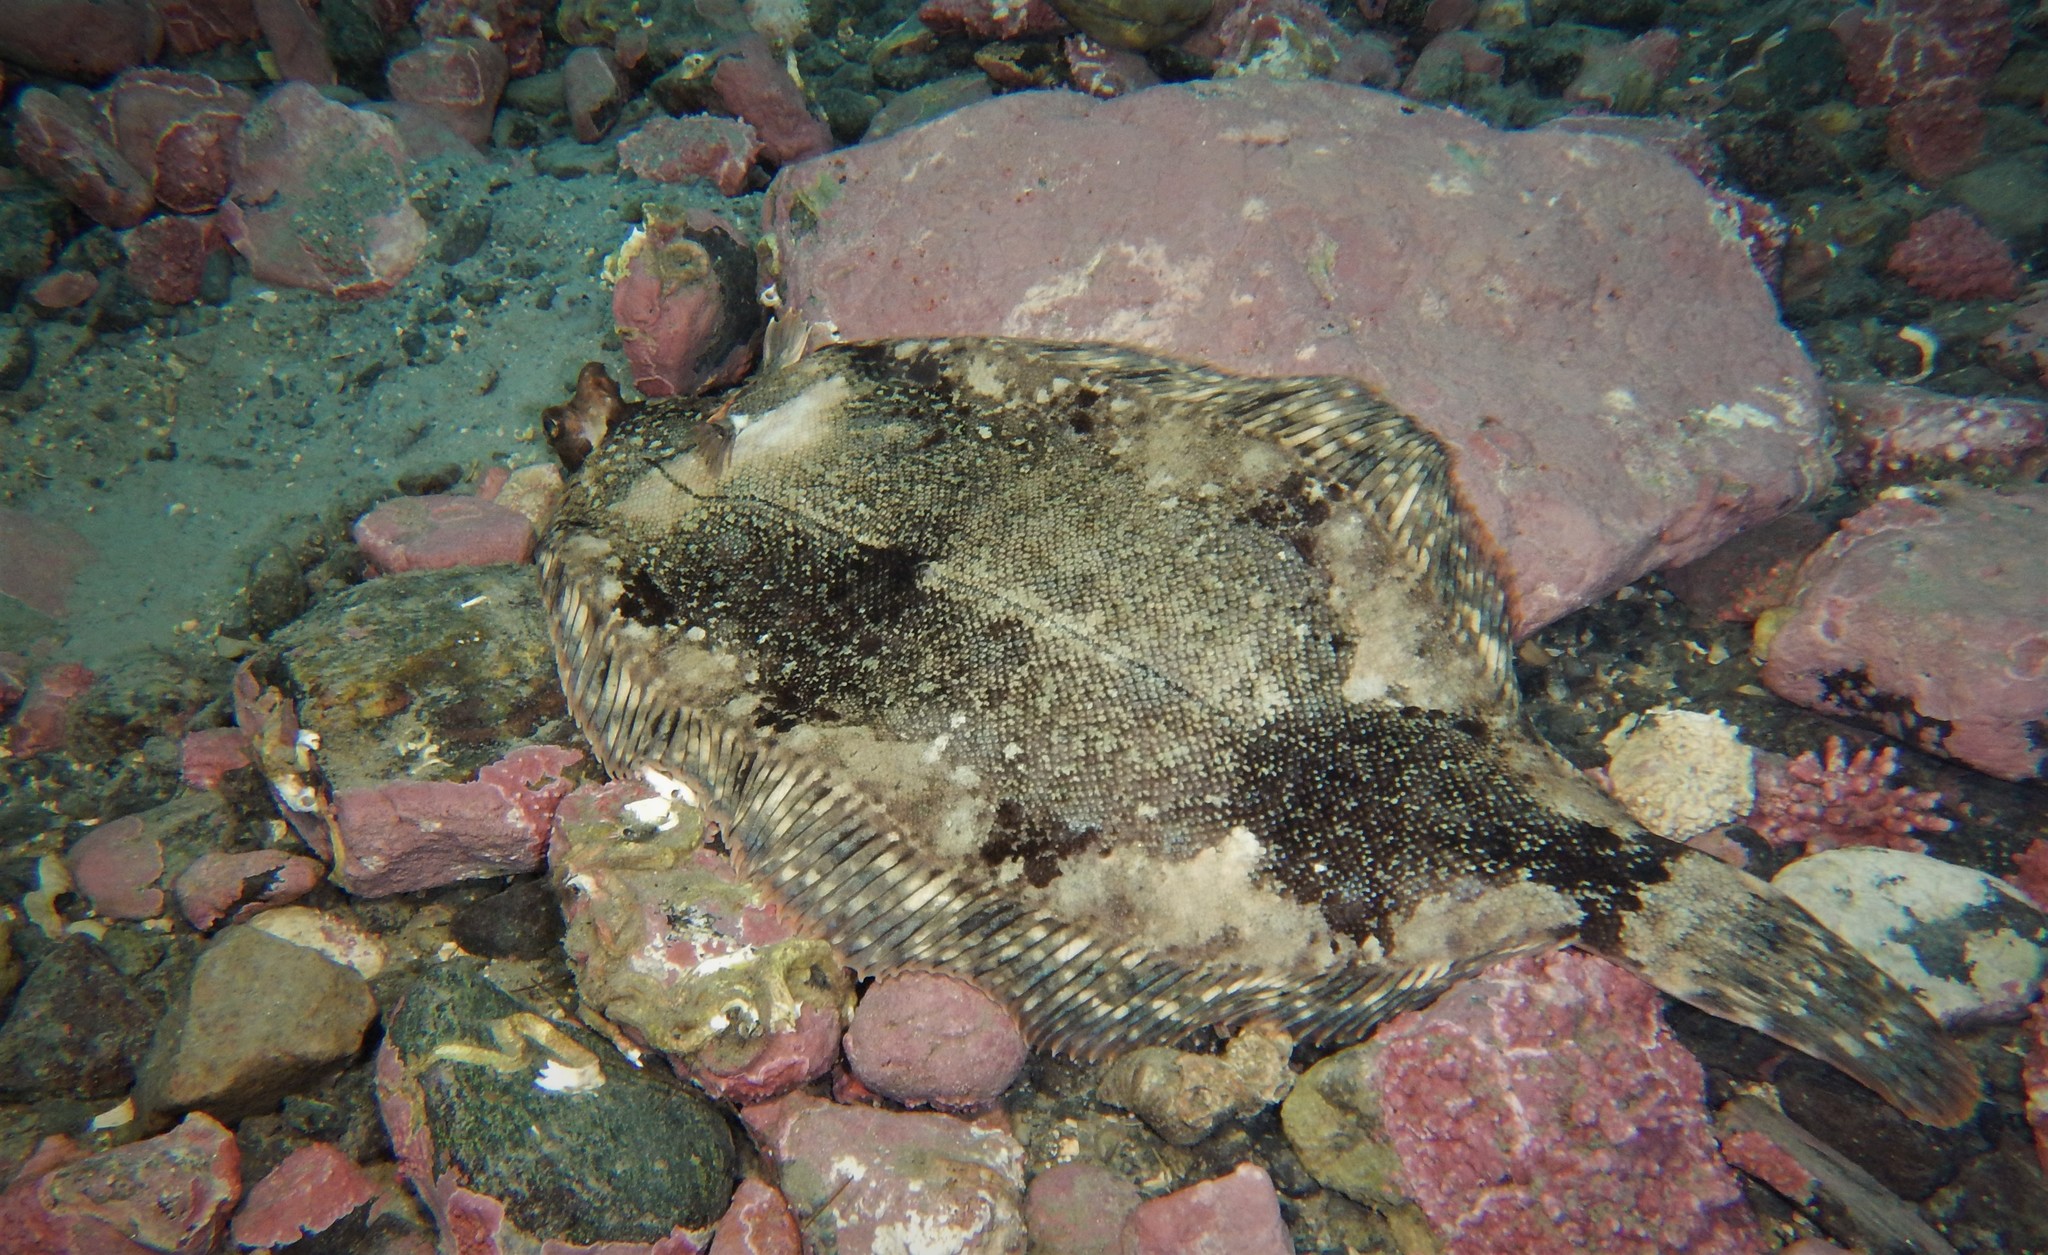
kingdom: Animalia
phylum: Chordata
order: Pleuronectiformes
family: Pleuronectidae
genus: Microstomus
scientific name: Microstomus kitt
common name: Lemon sole
